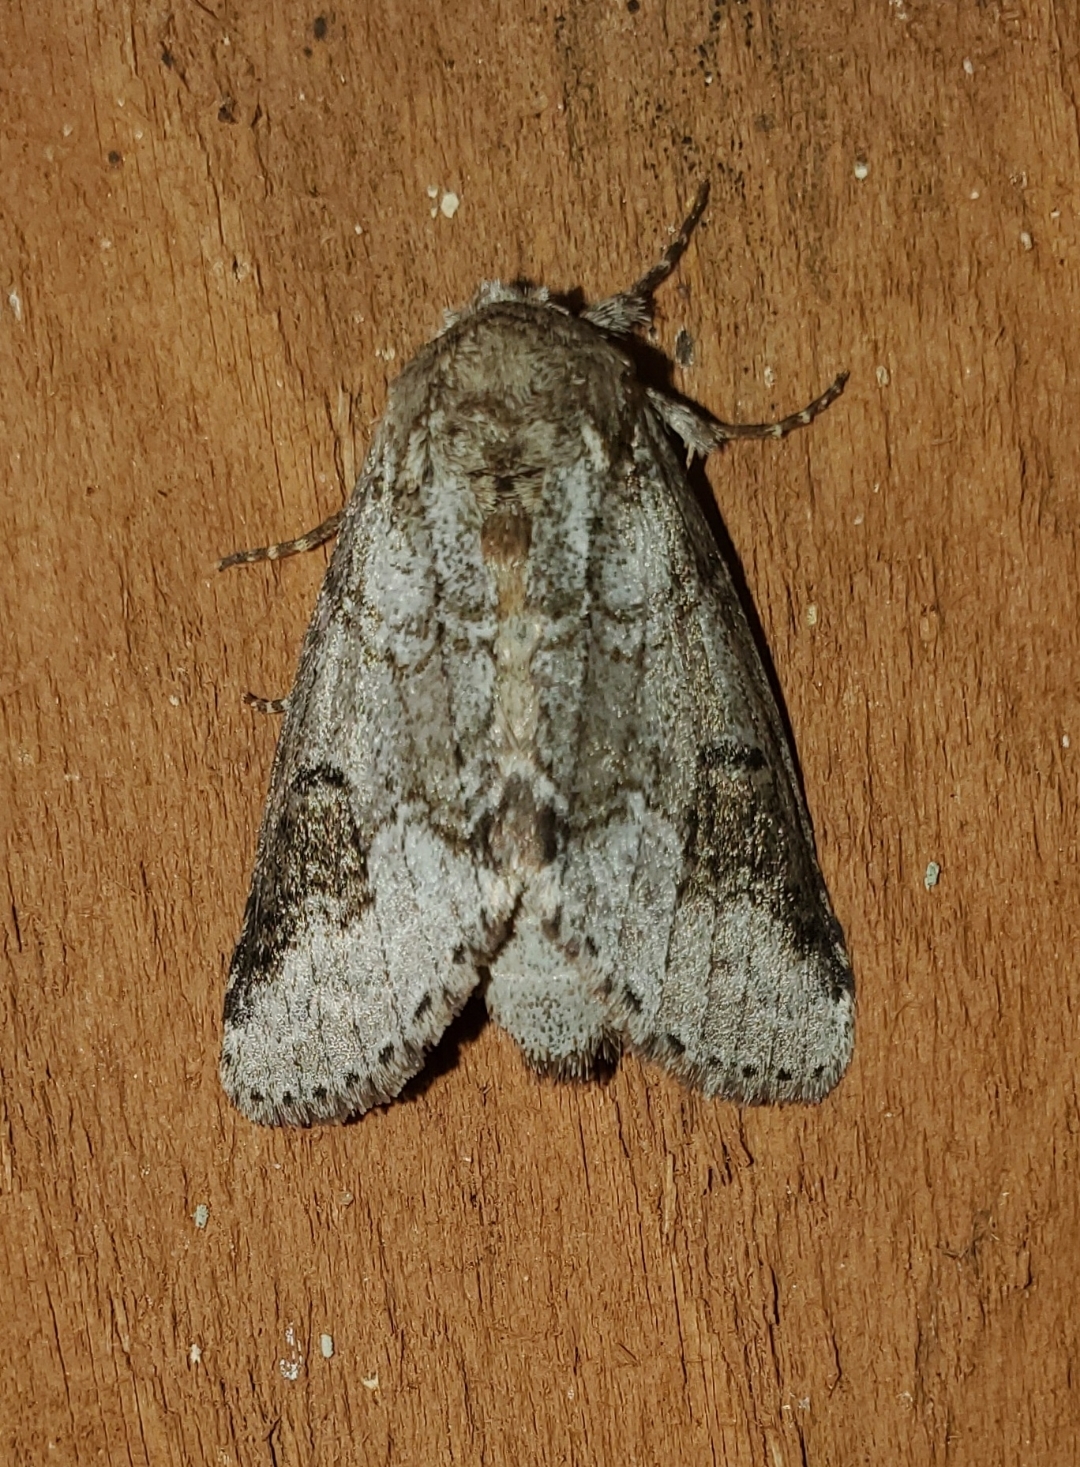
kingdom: Animalia
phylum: Arthropoda
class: Insecta
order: Lepidoptera
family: Notodontidae
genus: Lochmaeus
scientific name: Lochmaeus bilineata
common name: Double-lined prominent
